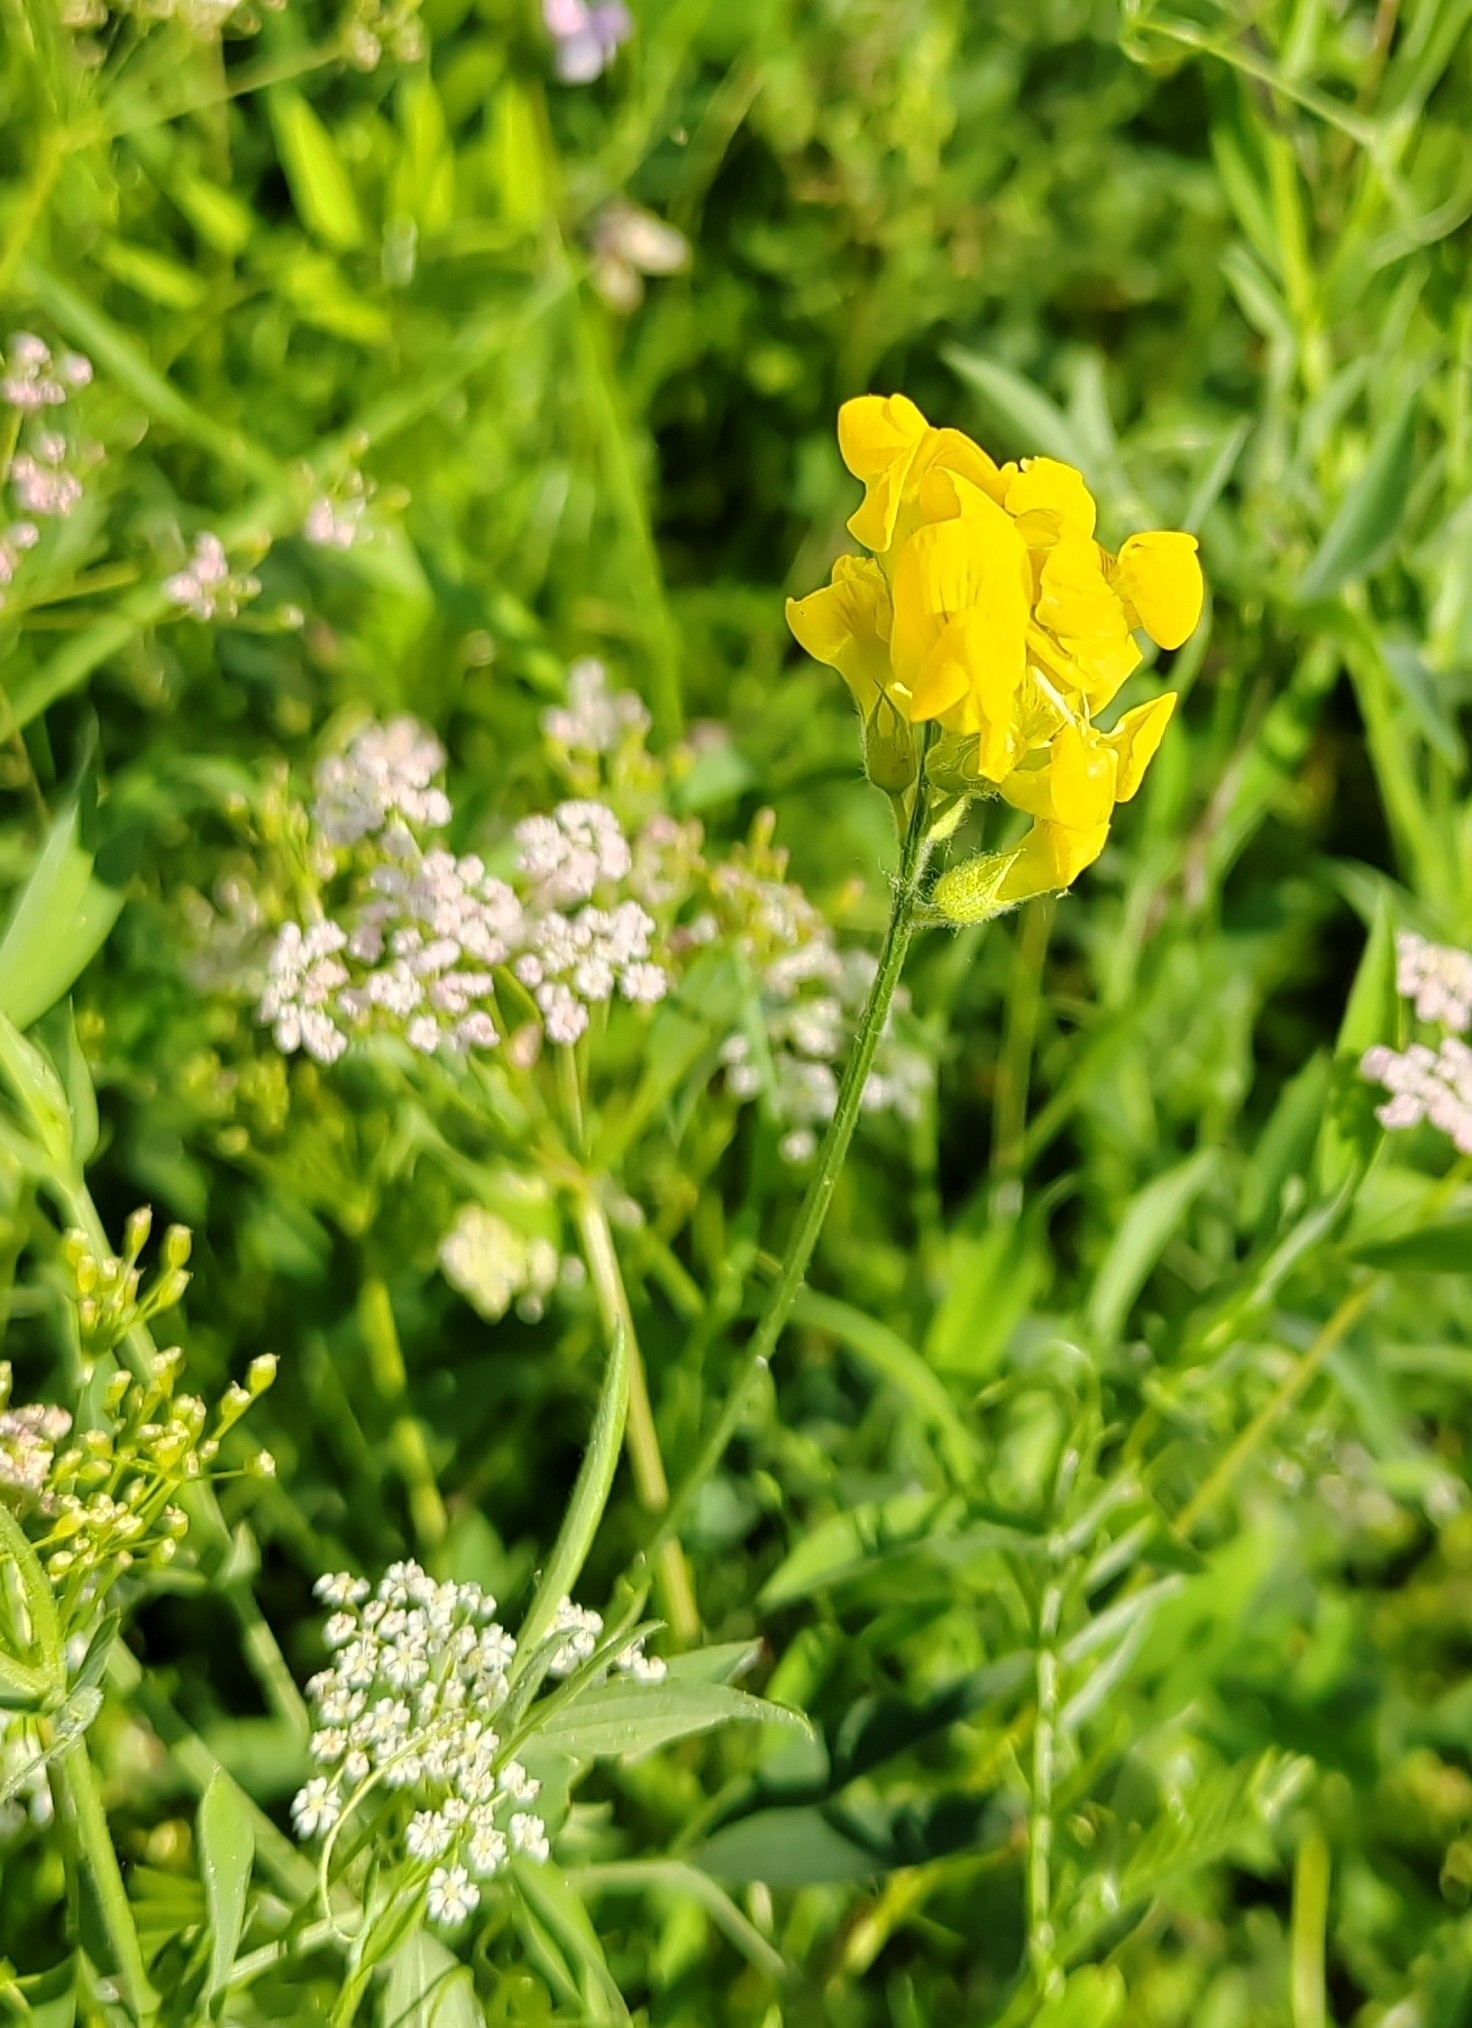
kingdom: Plantae
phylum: Tracheophyta
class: Magnoliopsida
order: Fabales
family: Fabaceae
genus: Lathyrus
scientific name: Lathyrus pratensis
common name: Meadow vetchling
